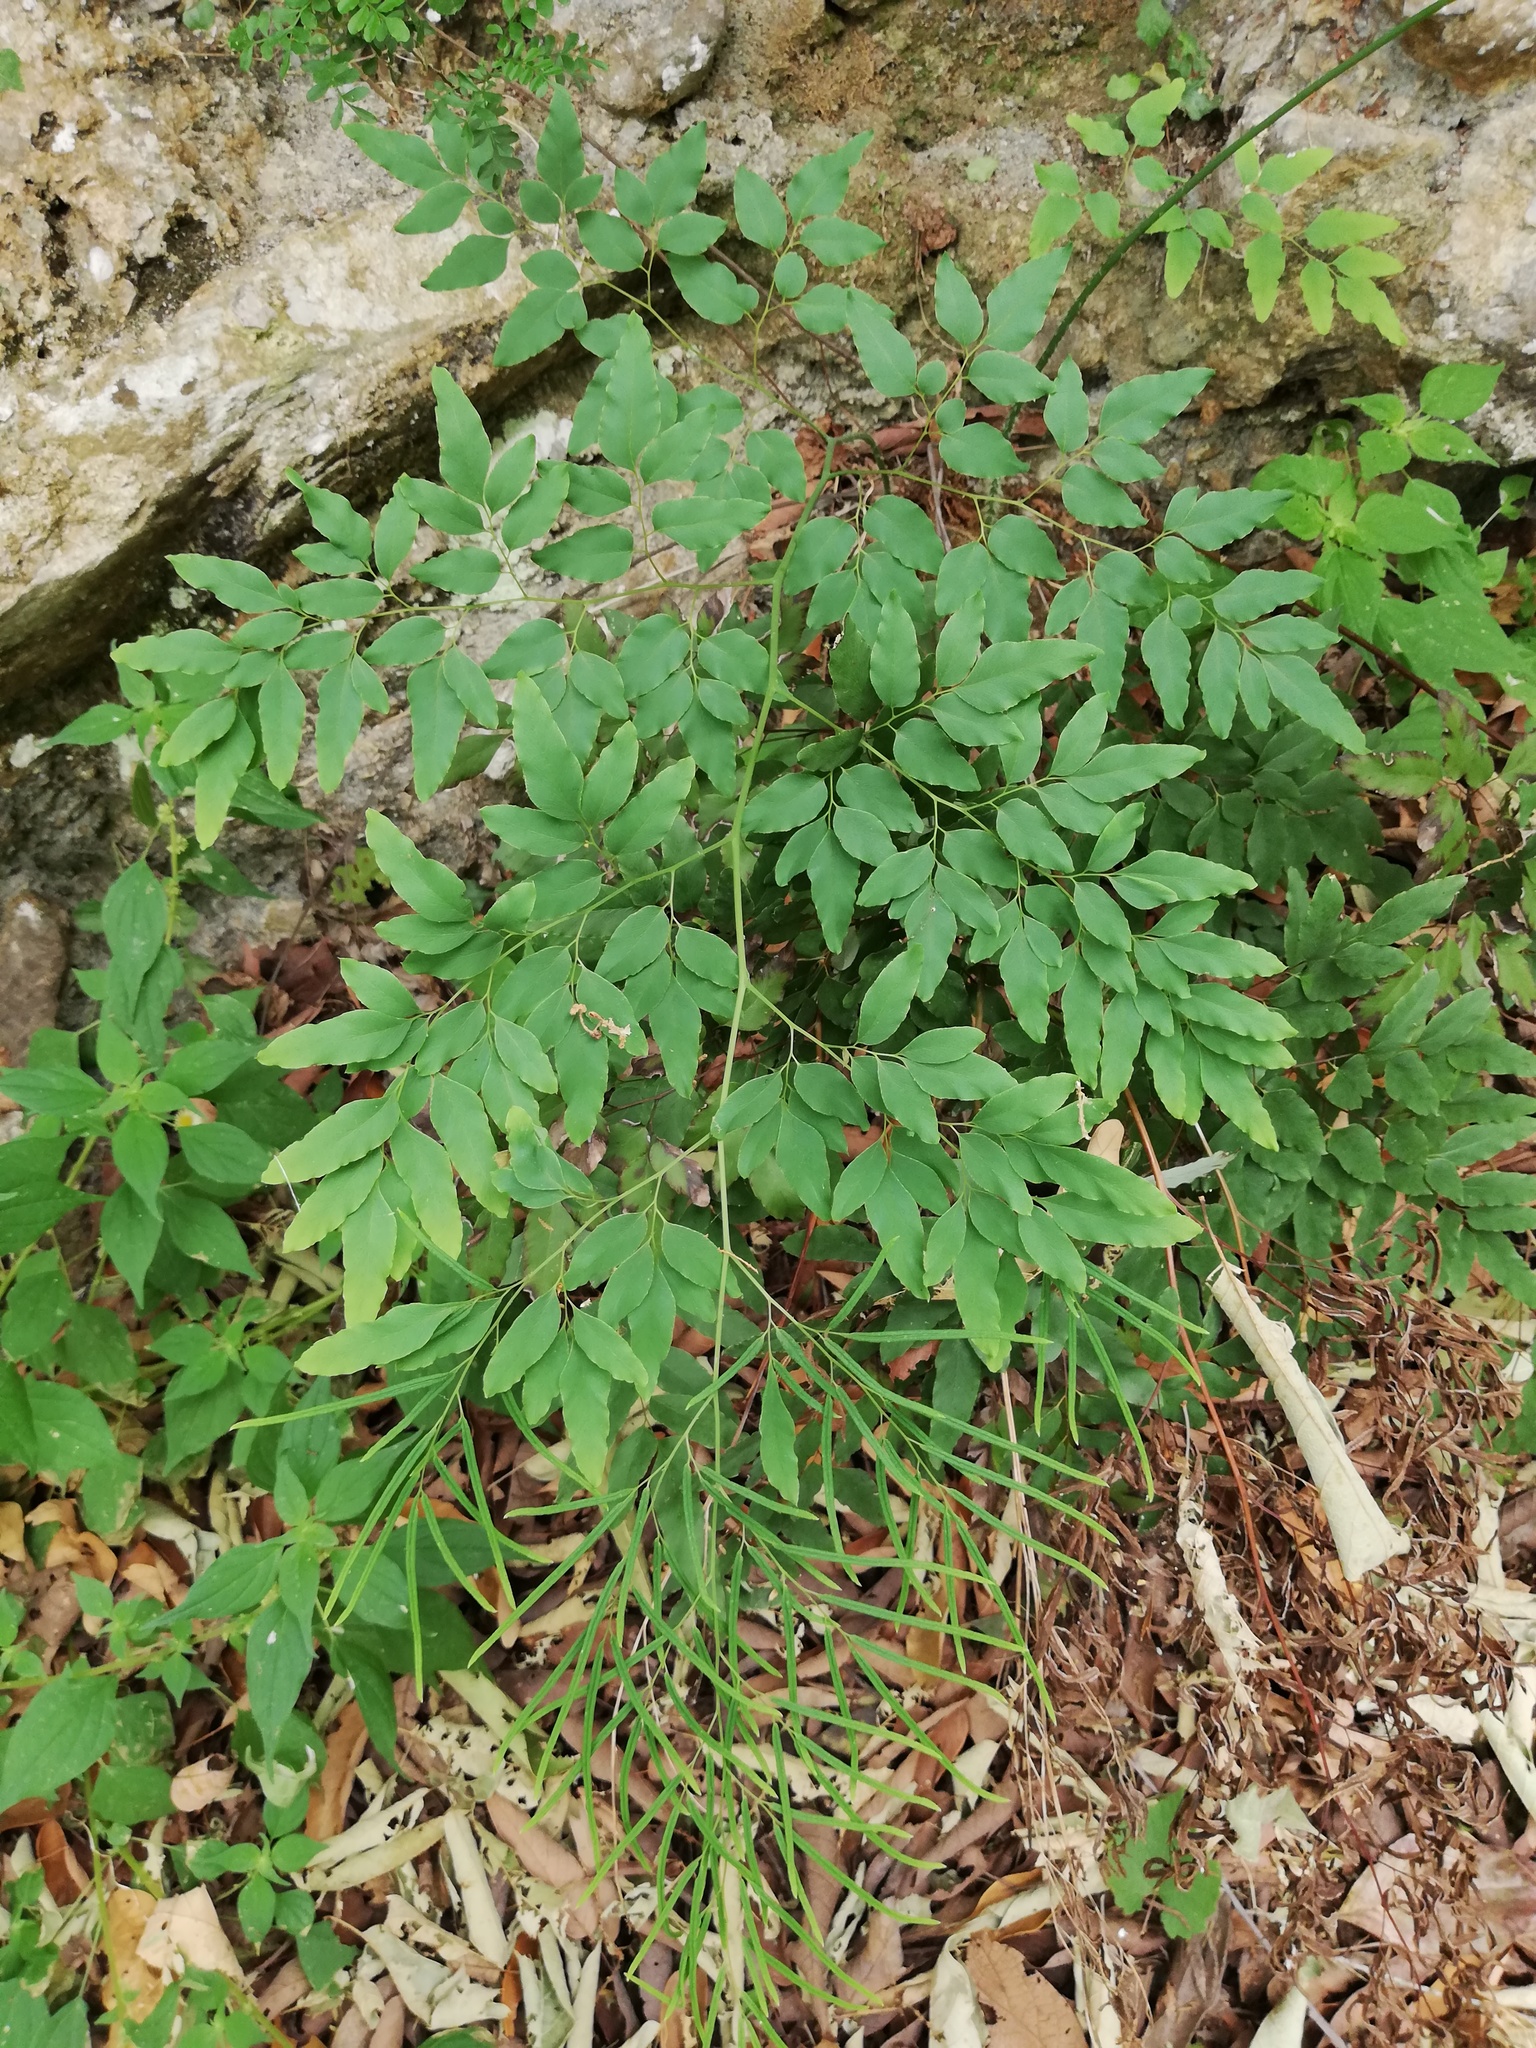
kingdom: Plantae
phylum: Tracheophyta
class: Polypodiopsida
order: Polypodiales
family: Pteridaceae
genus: Llavea
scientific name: Llavea cordifolia
